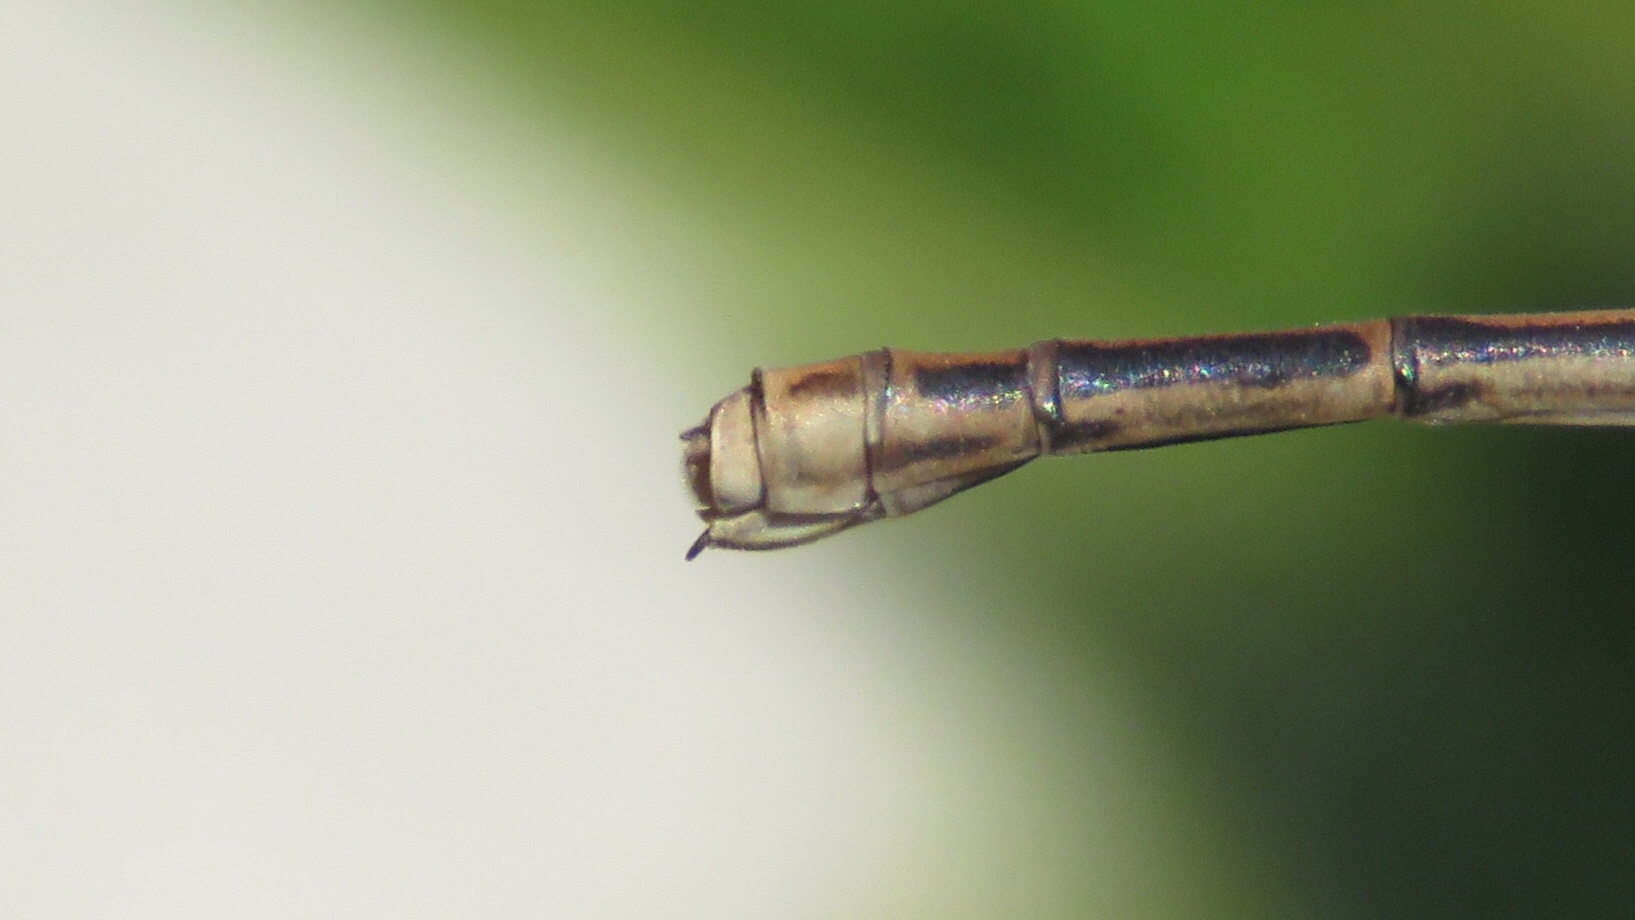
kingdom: Animalia
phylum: Arthropoda
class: Insecta
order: Odonata
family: Coenagrionidae
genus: Argia
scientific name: Argia fumipennis
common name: Variable dancer
